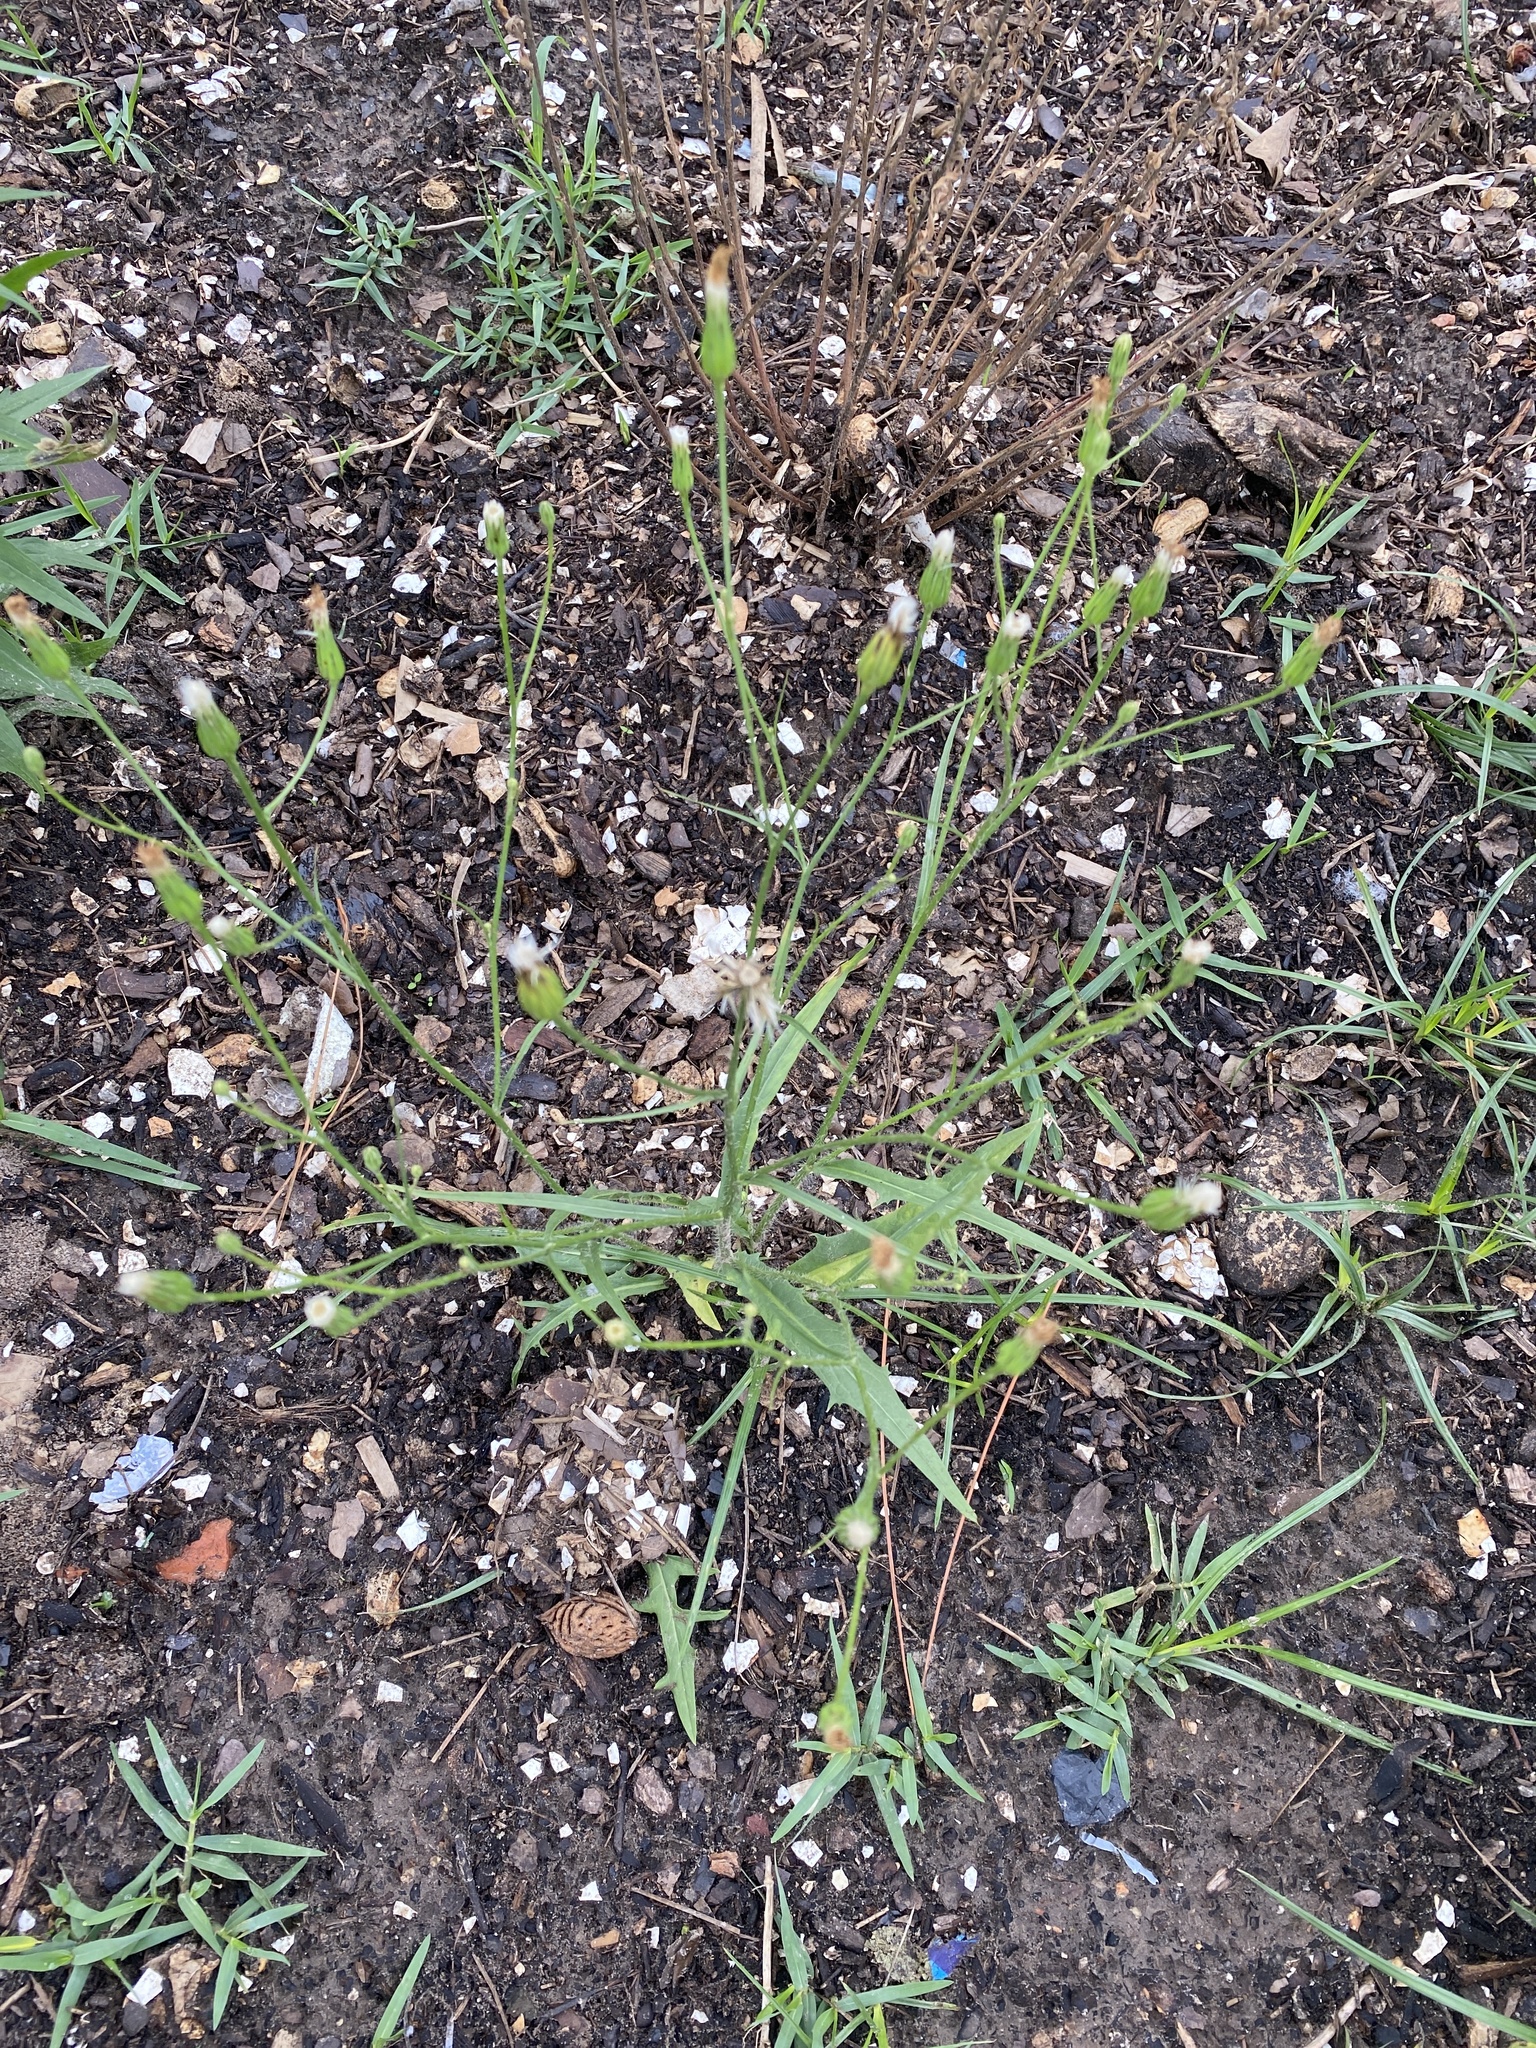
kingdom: Plantae
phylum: Tracheophyta
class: Magnoliopsida
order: Asterales
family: Asteraceae
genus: Hypochaeris
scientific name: Hypochaeris albiflora
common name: White flatweed
